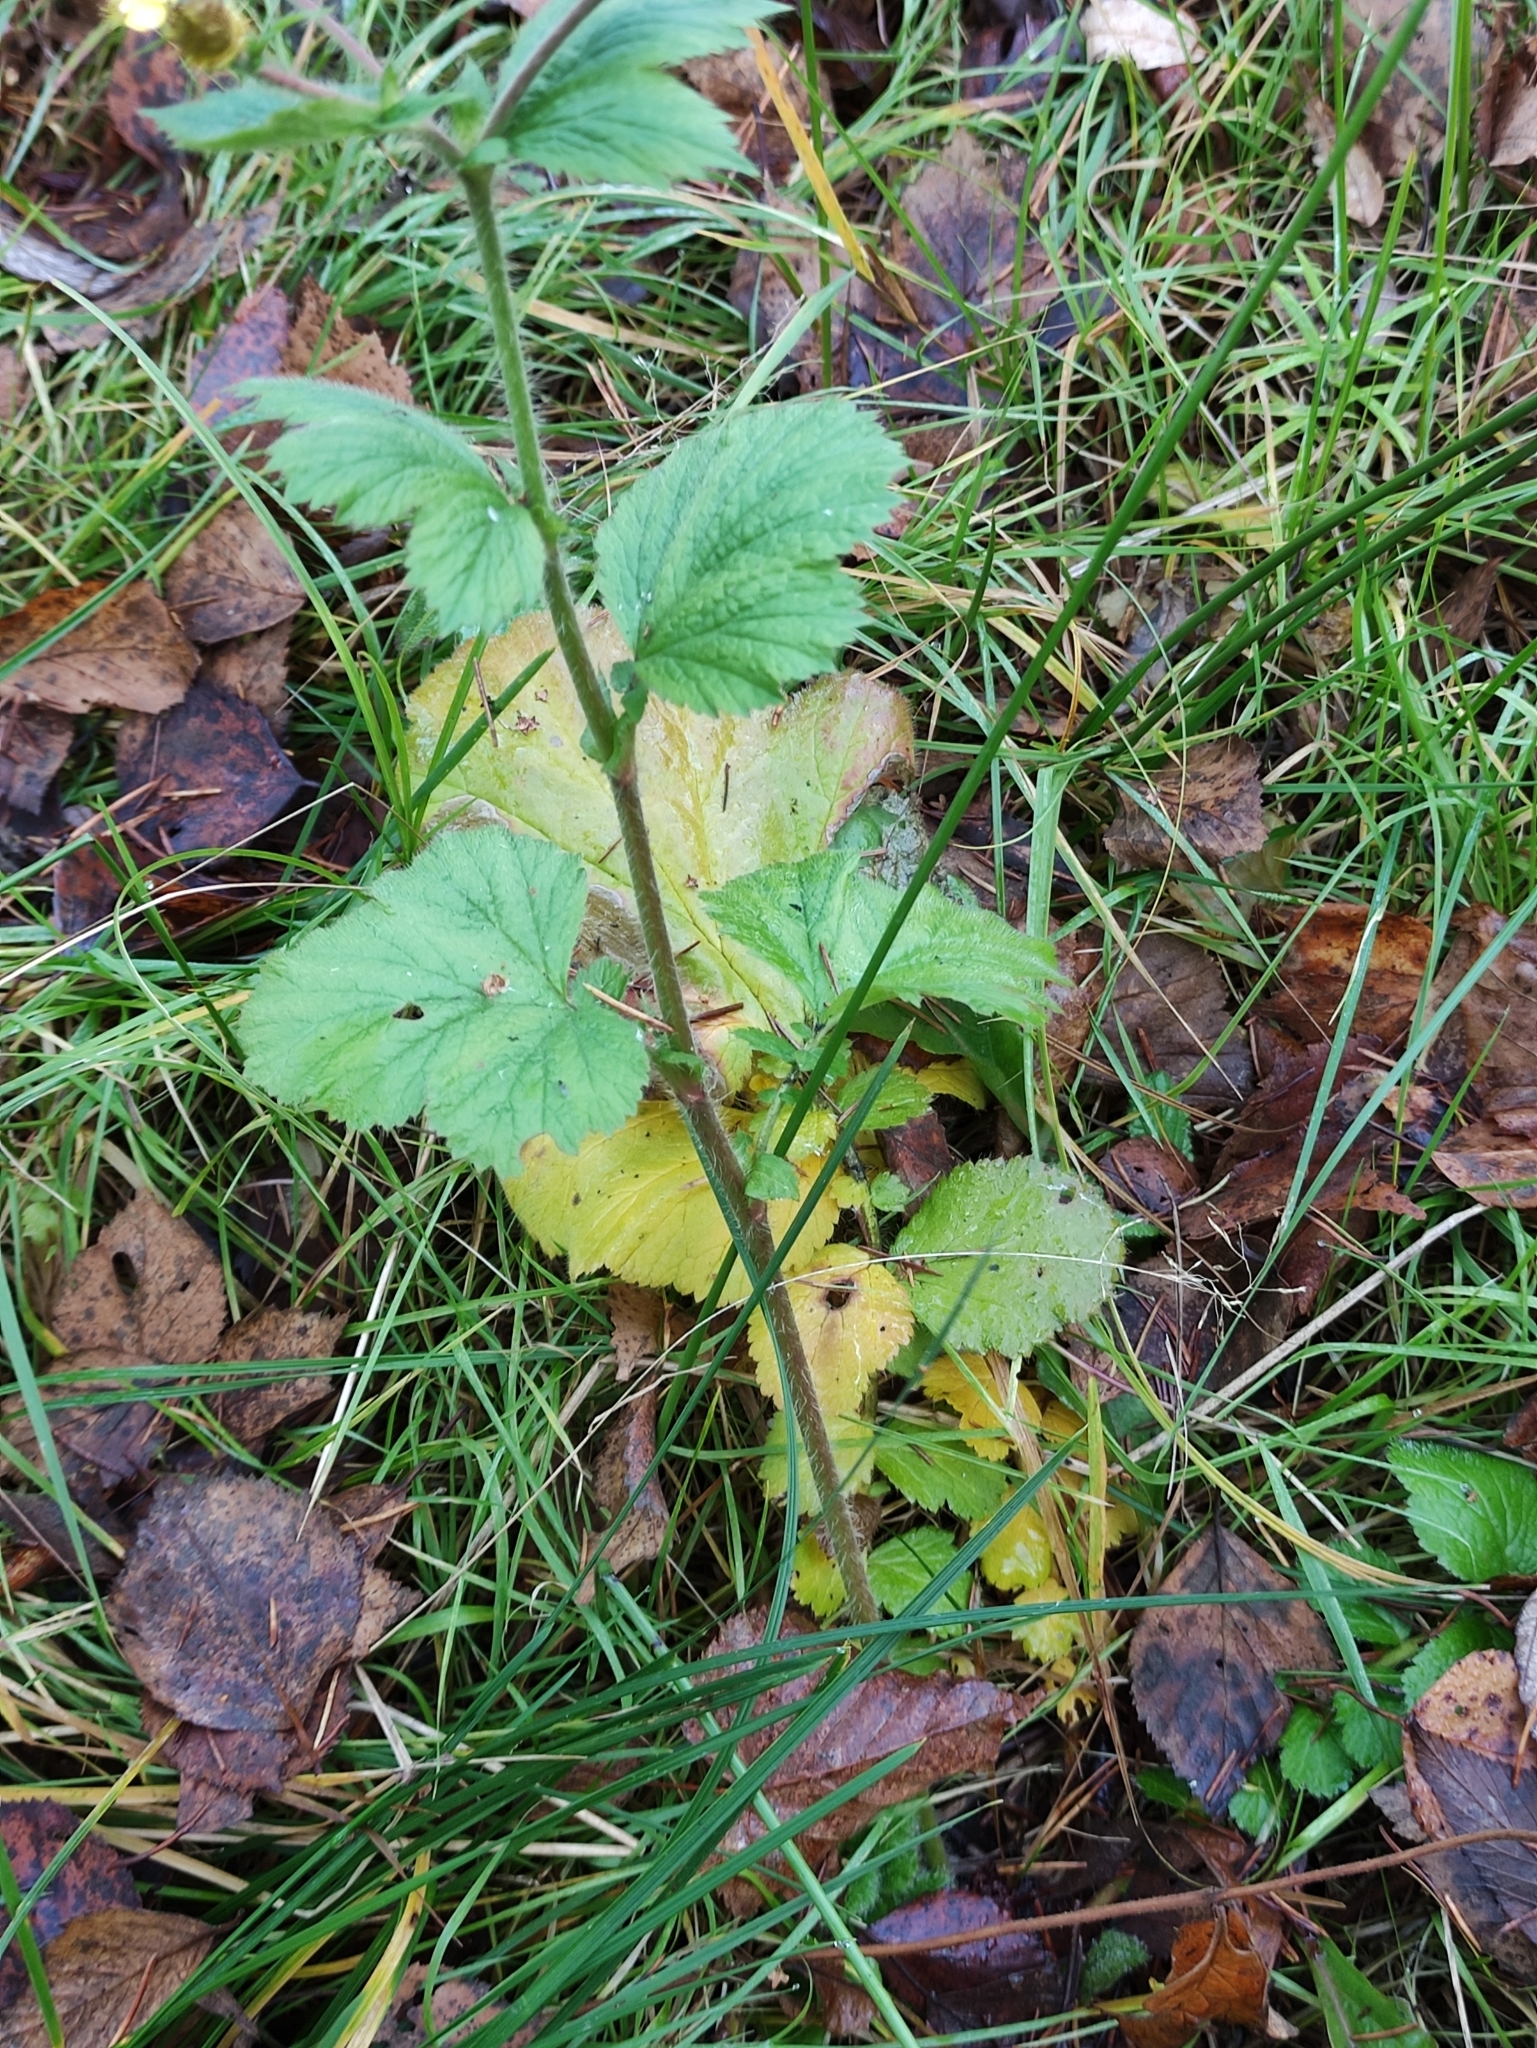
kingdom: Plantae
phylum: Tracheophyta
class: Magnoliopsida
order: Rosales
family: Rosaceae
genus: Geum
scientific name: Geum macrophyllum
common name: Large-leaved avens
